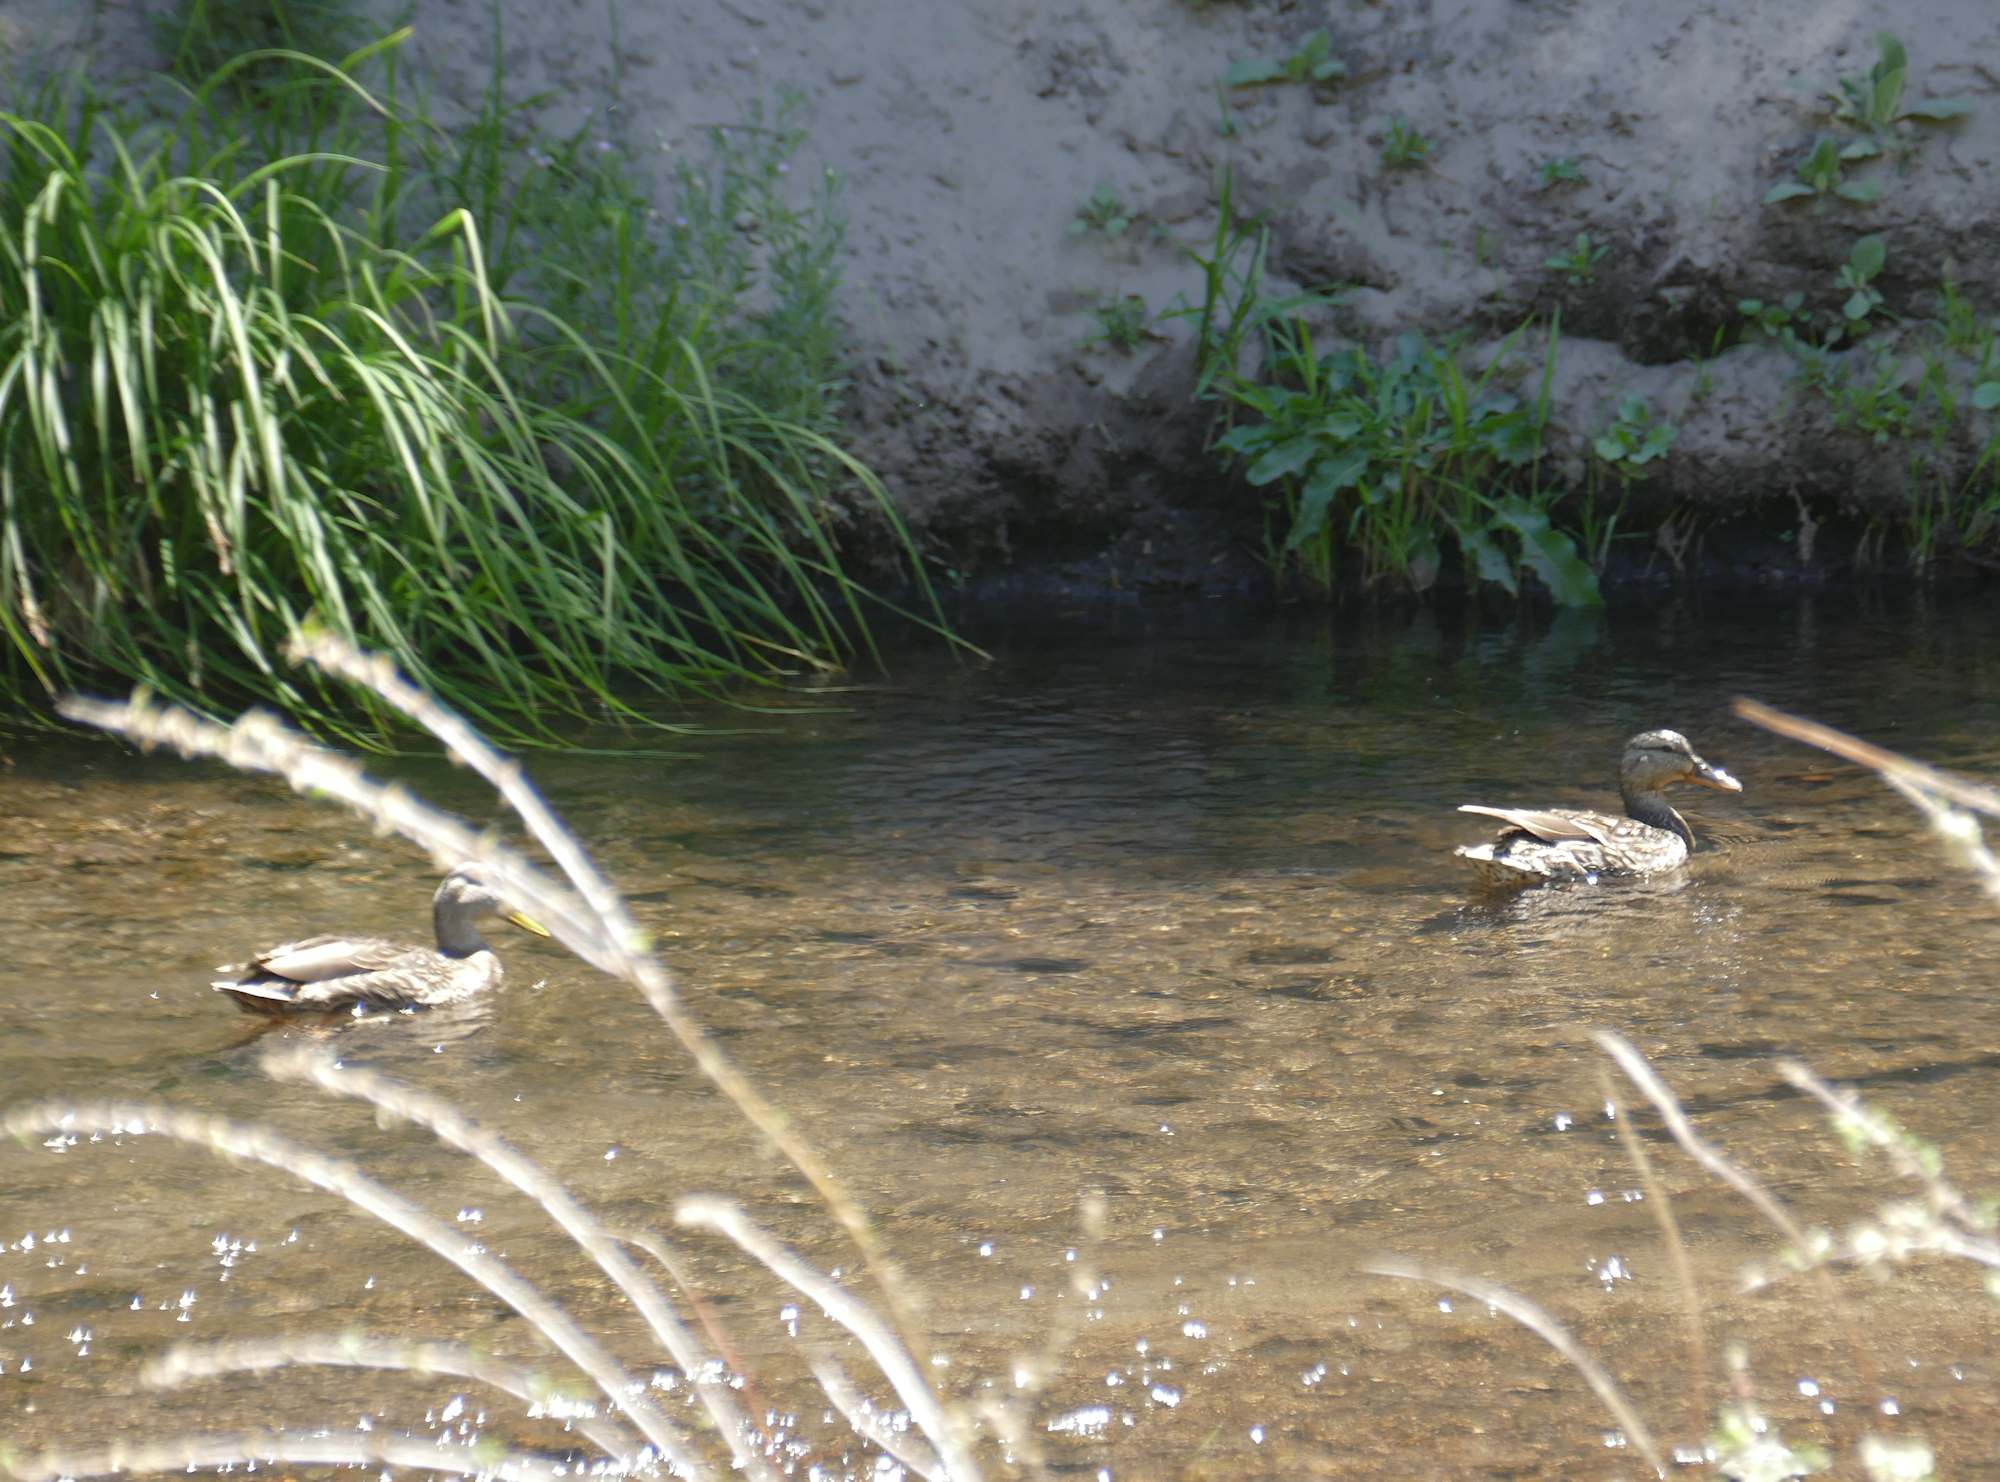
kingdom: Animalia
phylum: Chordata
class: Aves
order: Anseriformes
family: Anatidae
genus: Anas
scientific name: Anas diazi
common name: Mexican duck
